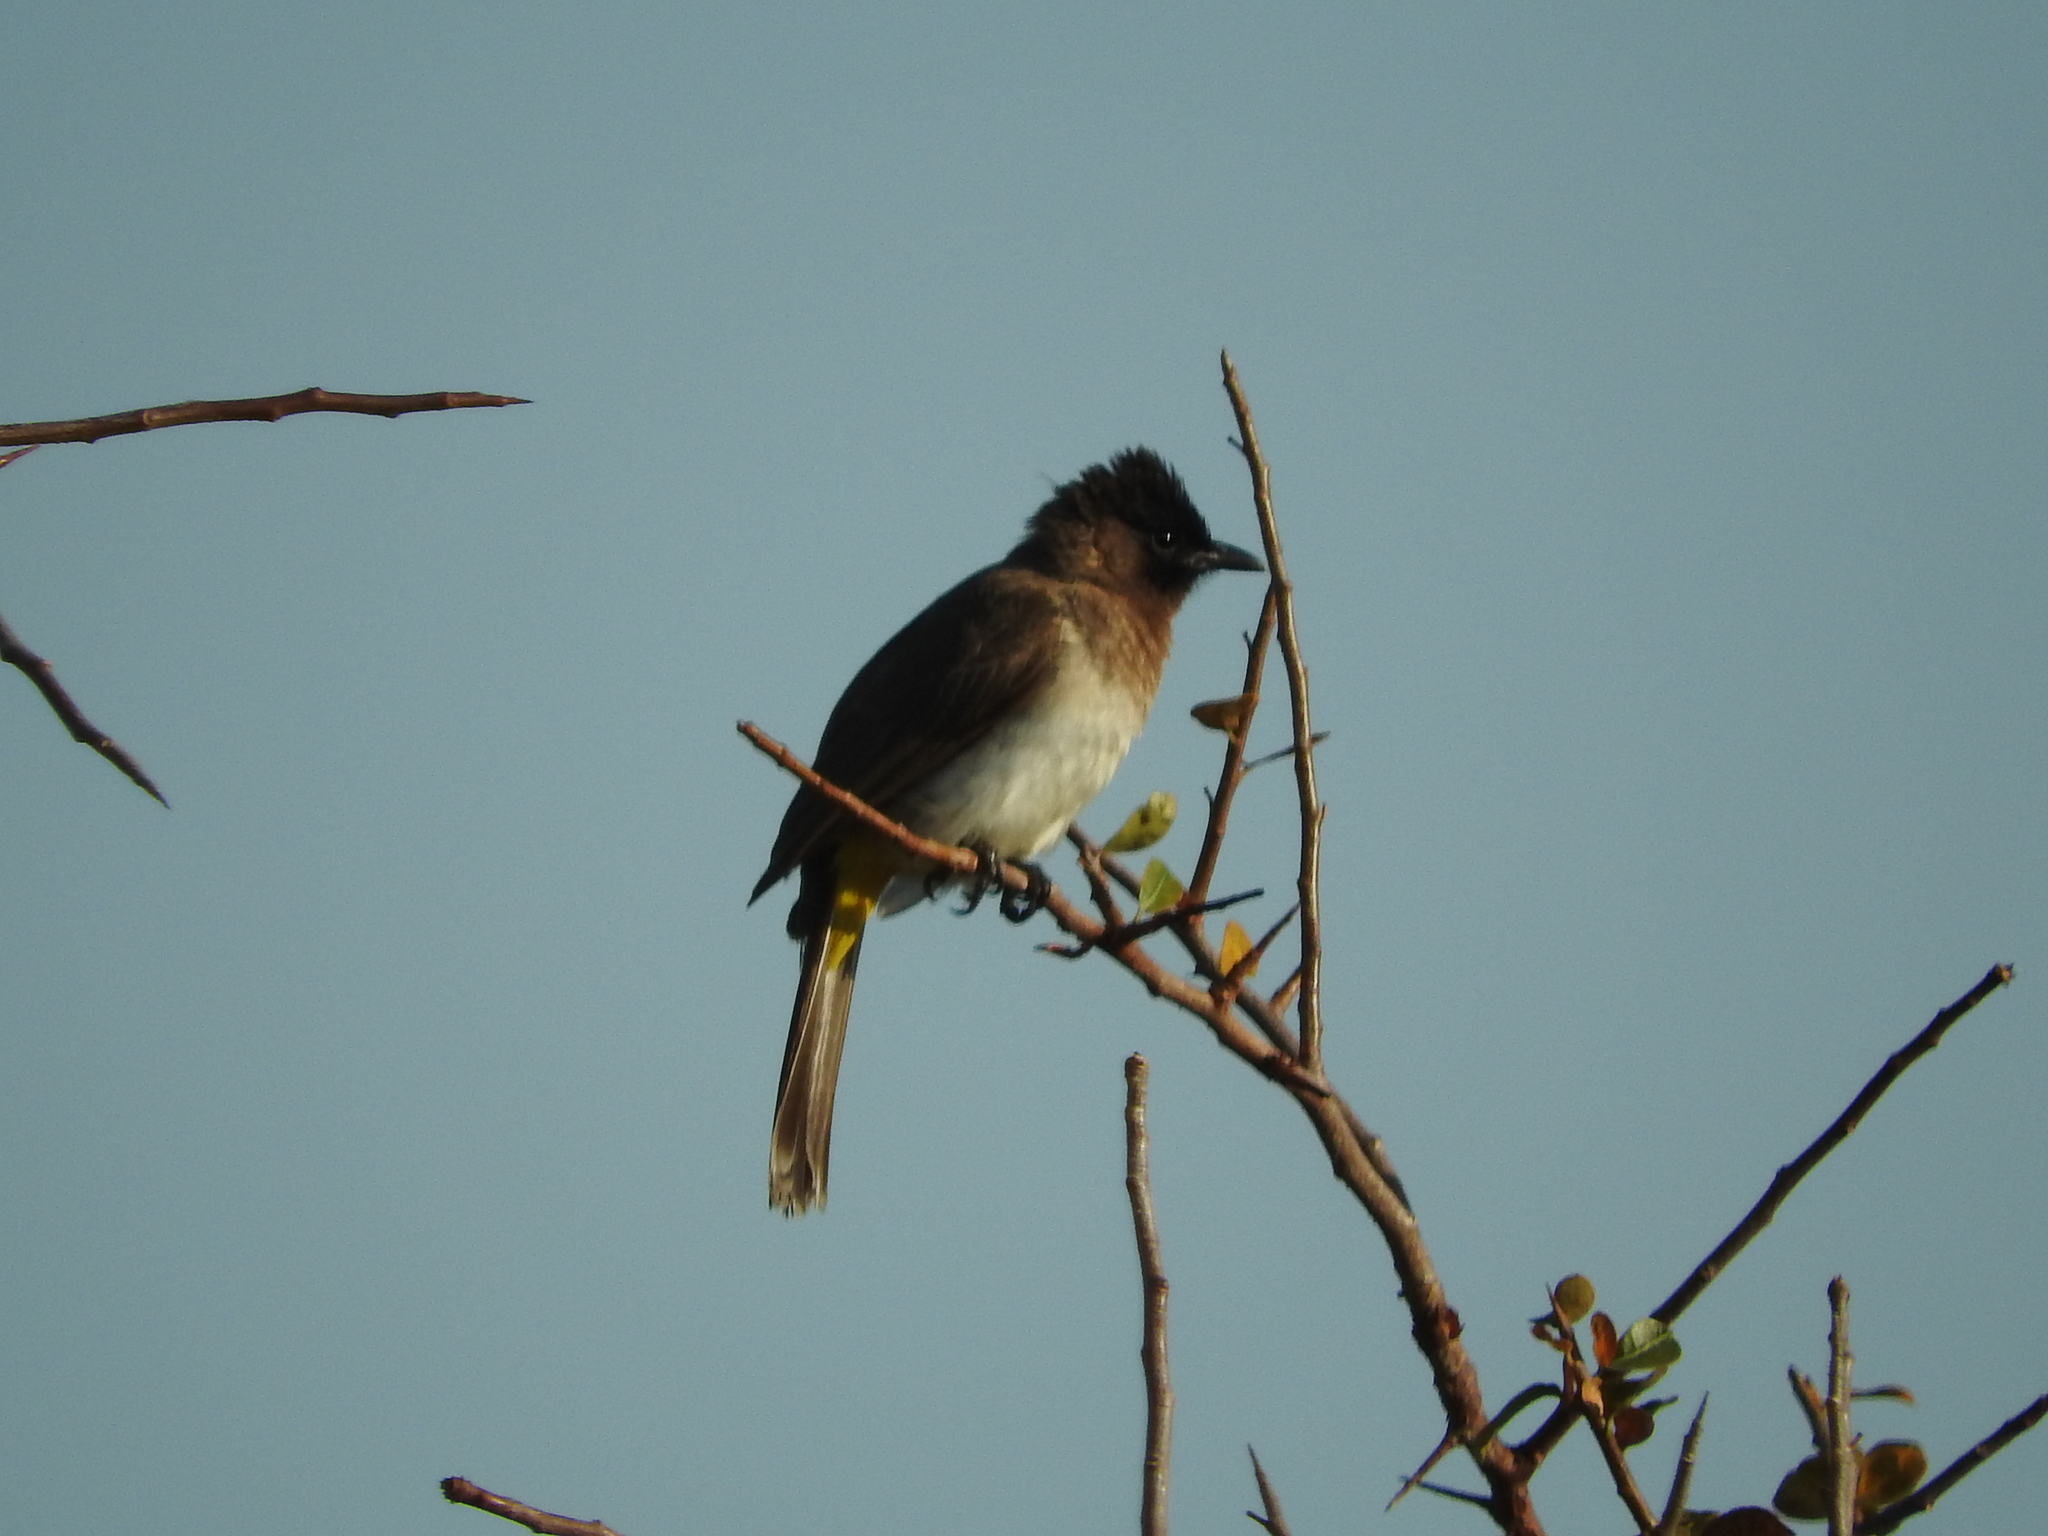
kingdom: Animalia
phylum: Chordata
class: Aves
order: Passeriformes
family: Pycnonotidae
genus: Pycnonotus
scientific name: Pycnonotus barbatus
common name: Common bulbul
